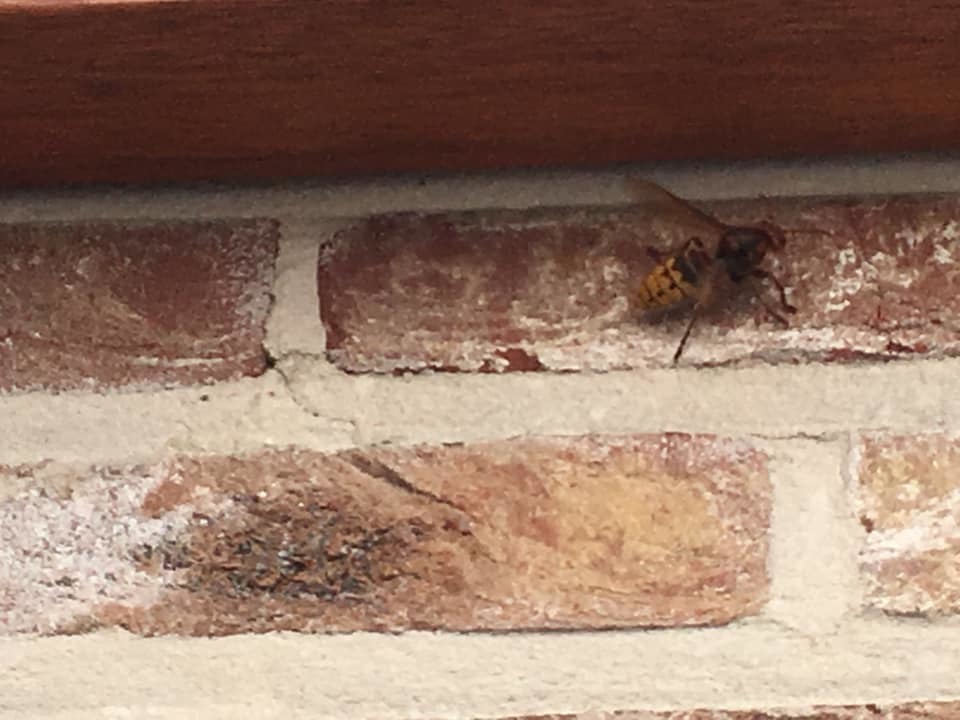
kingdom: Animalia
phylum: Arthropoda
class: Insecta
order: Hymenoptera
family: Vespidae
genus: Vespa
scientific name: Vespa crabro
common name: Hornet
